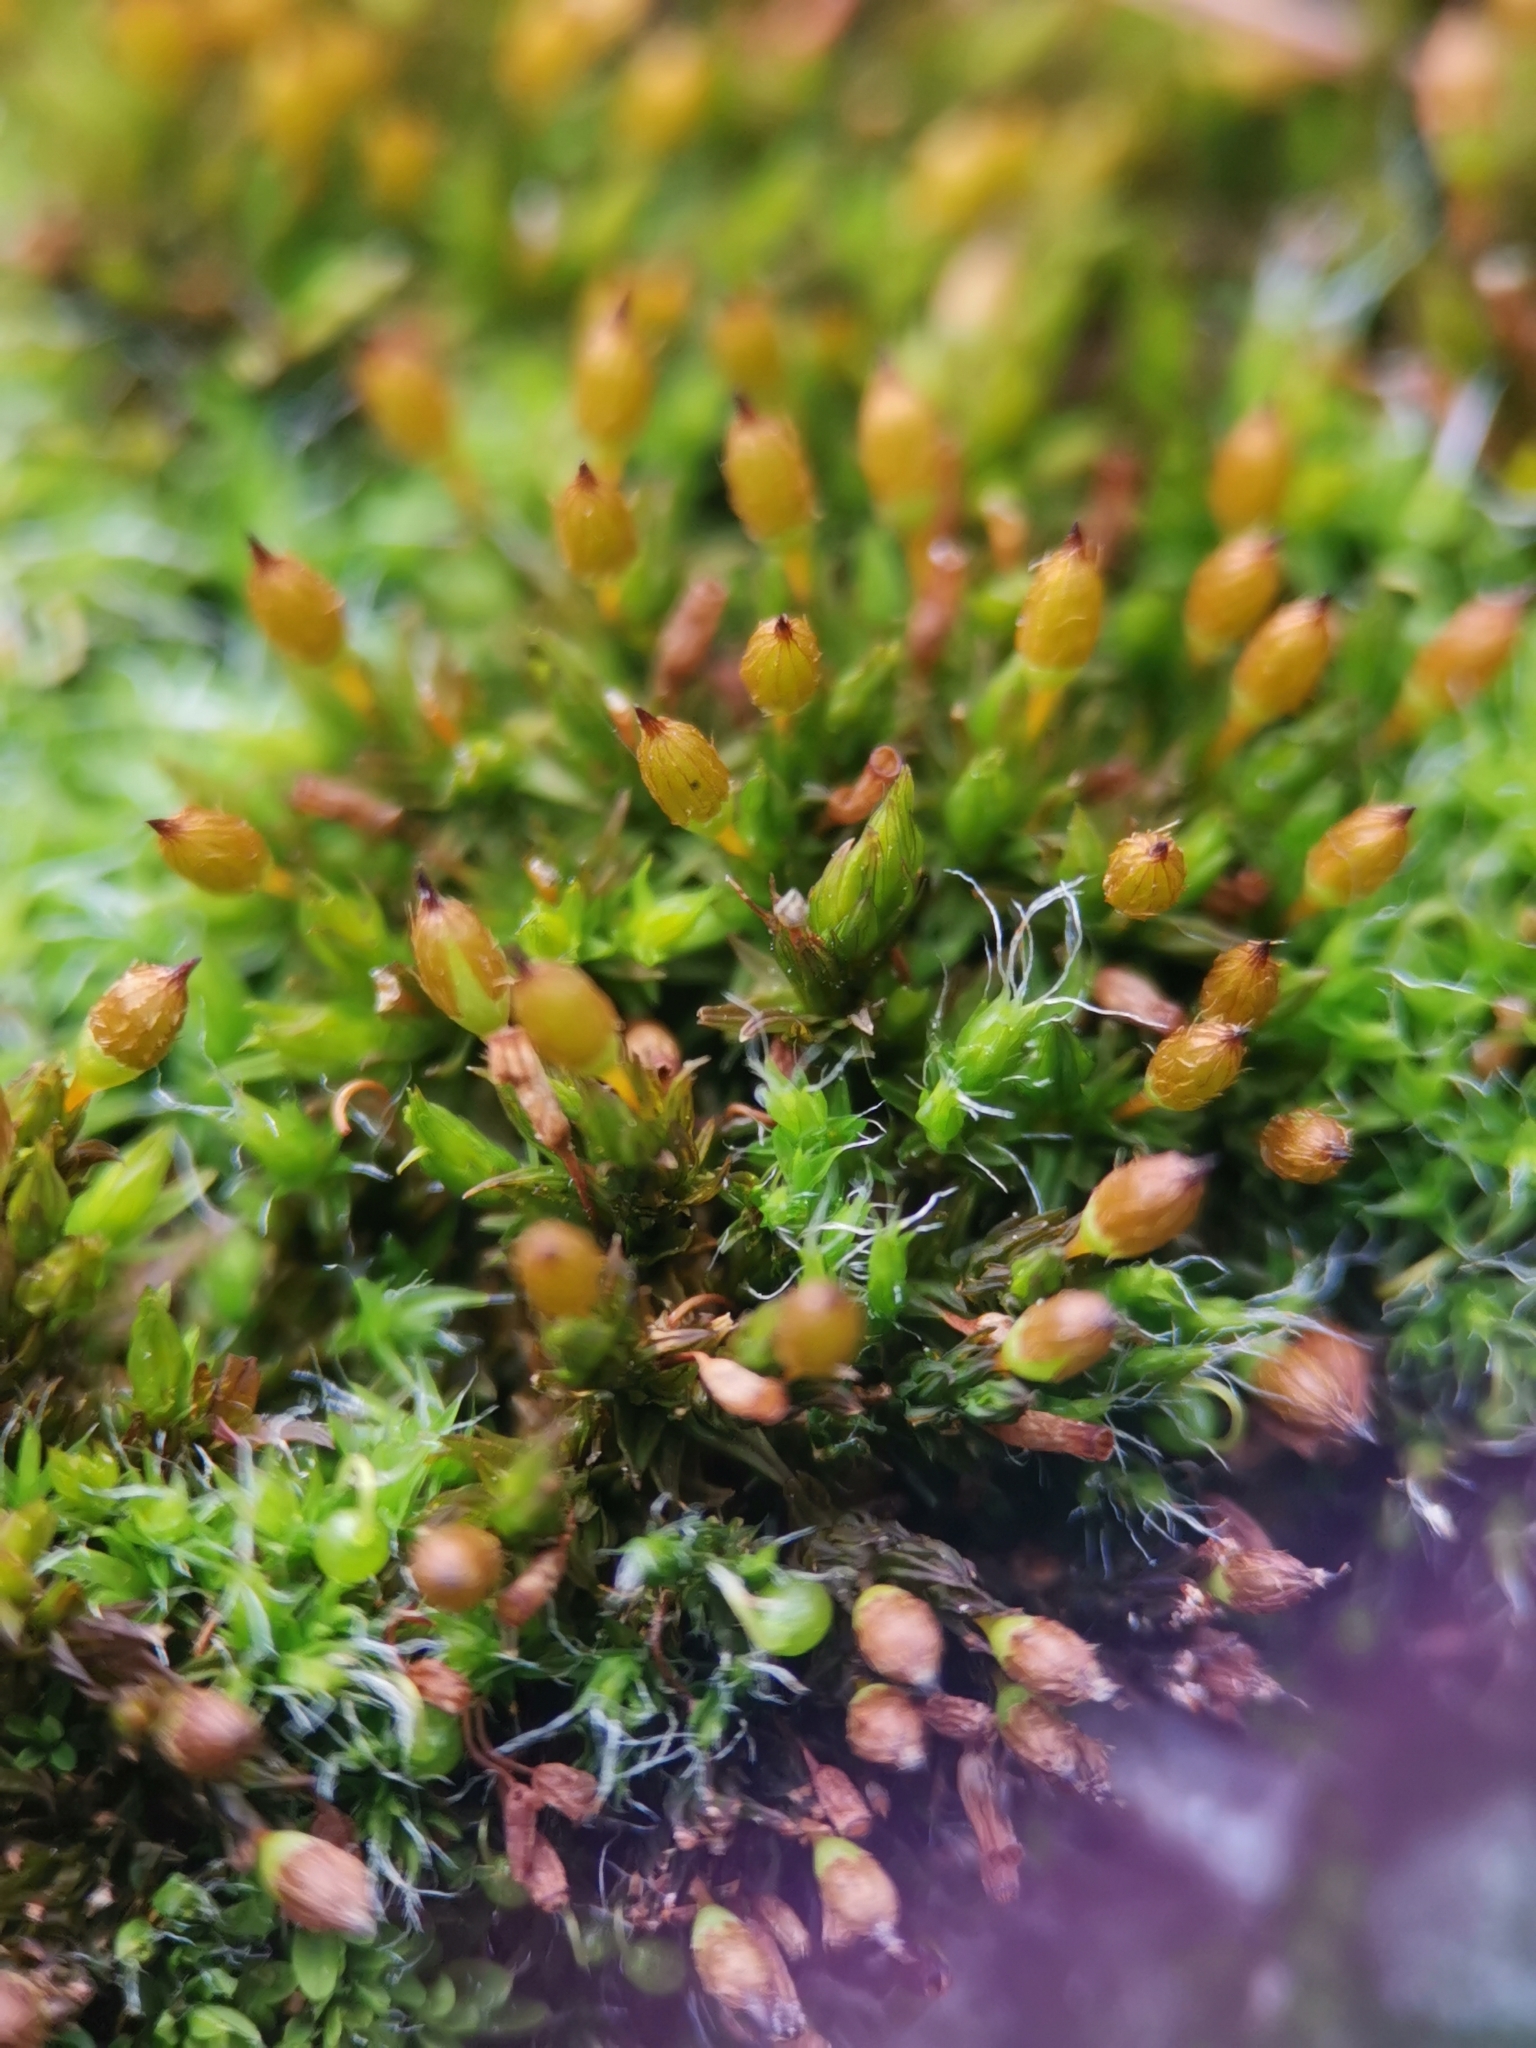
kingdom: Plantae
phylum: Bryophyta
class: Bryopsida
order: Orthotrichales
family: Orthotrichaceae
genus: Orthotrichum
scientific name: Orthotrichum anomalum
